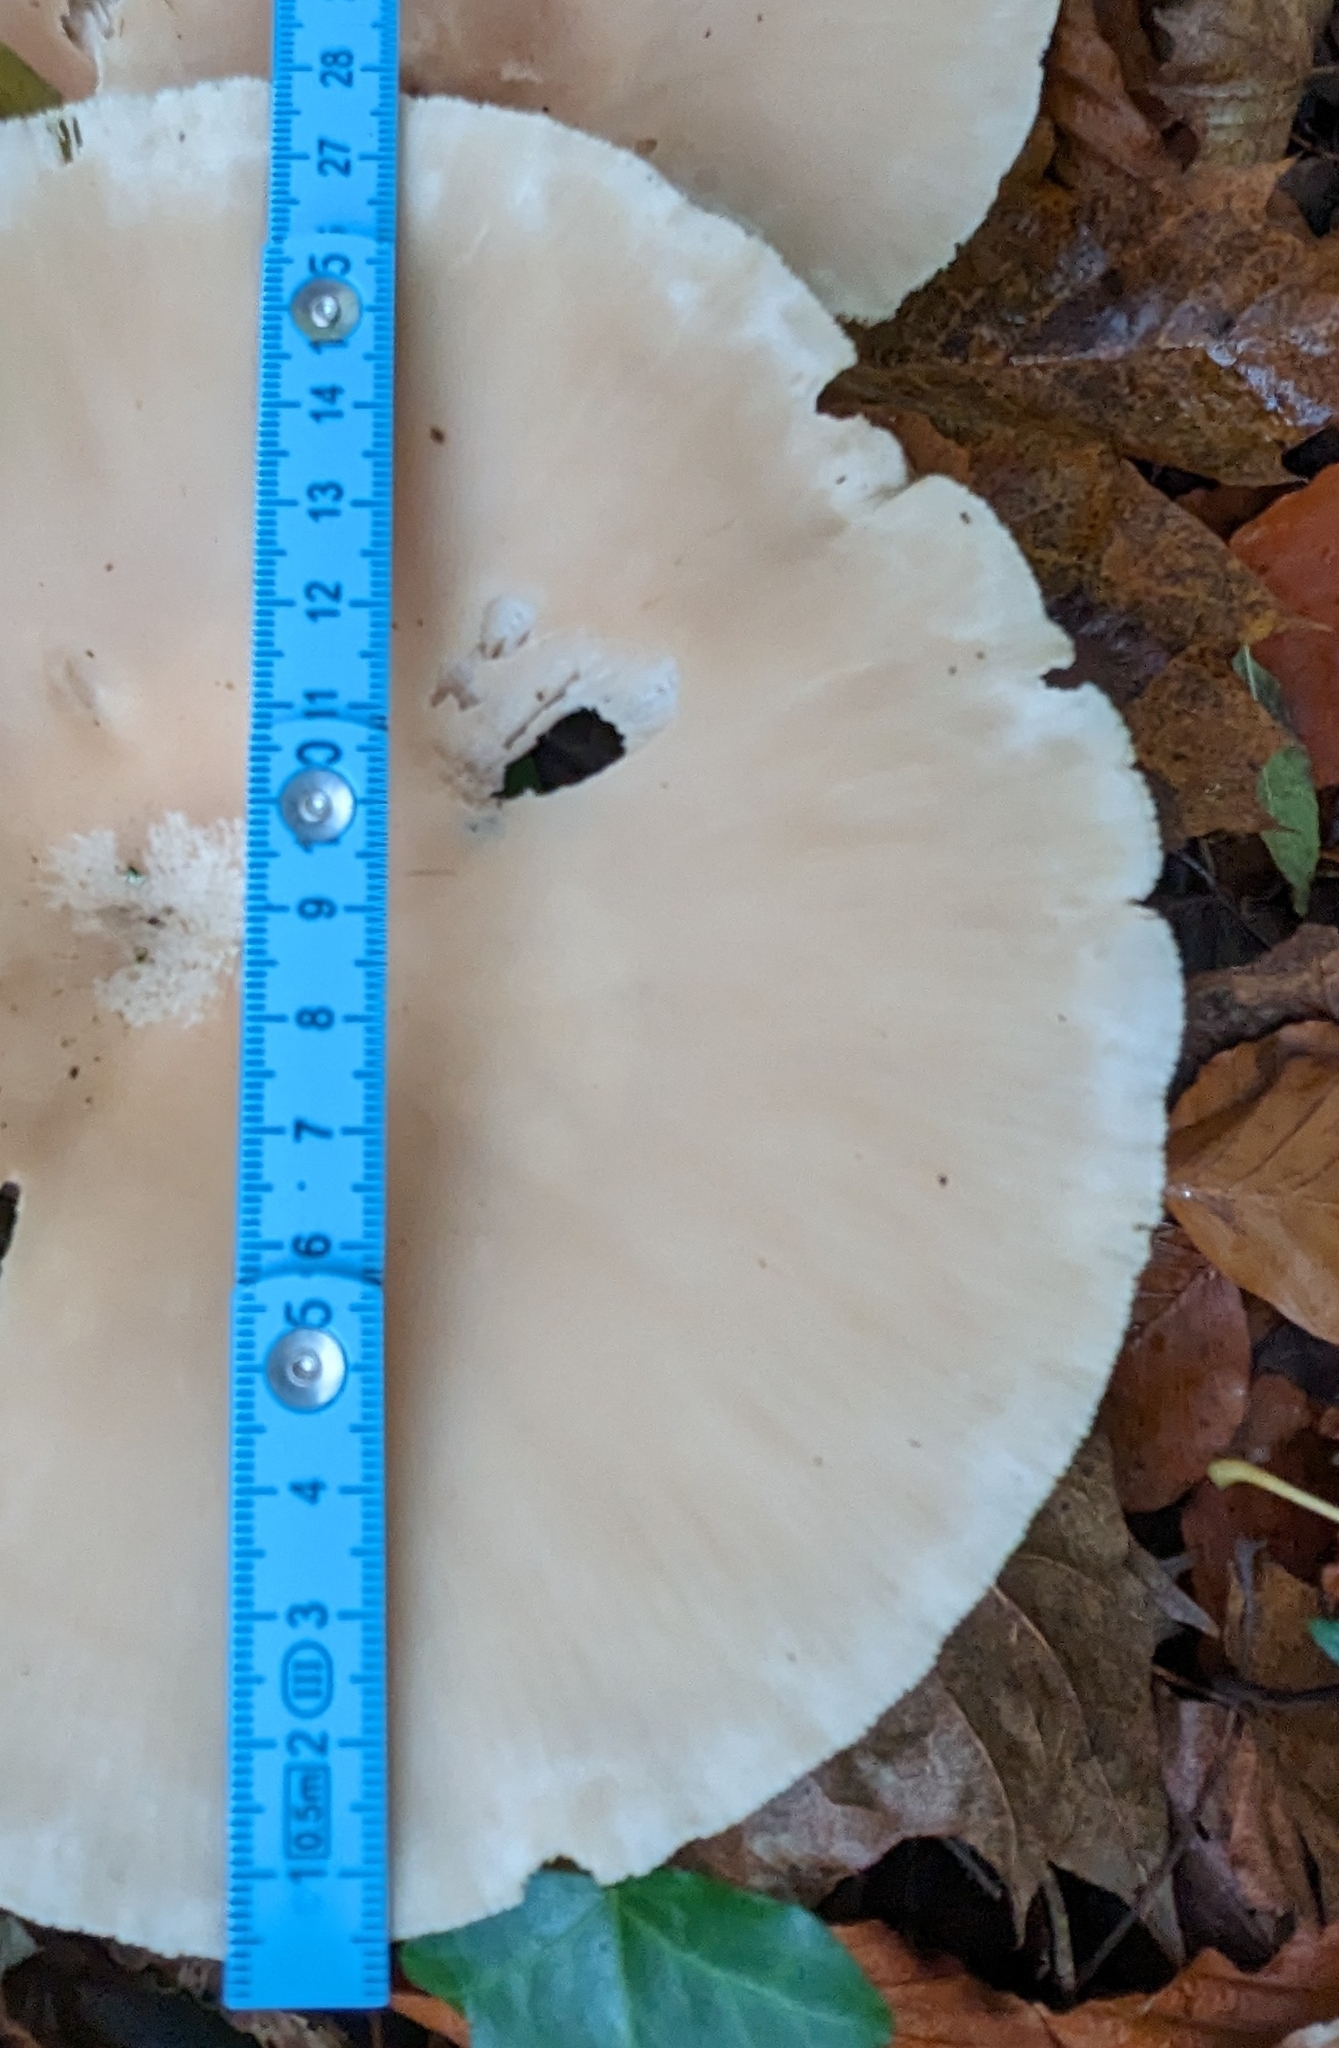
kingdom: Fungi
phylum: Basidiomycota
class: Agaricomycetes
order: Agaricales
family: Tricholomataceae
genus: Infundibulicybe
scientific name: Infundibulicybe geotropa
